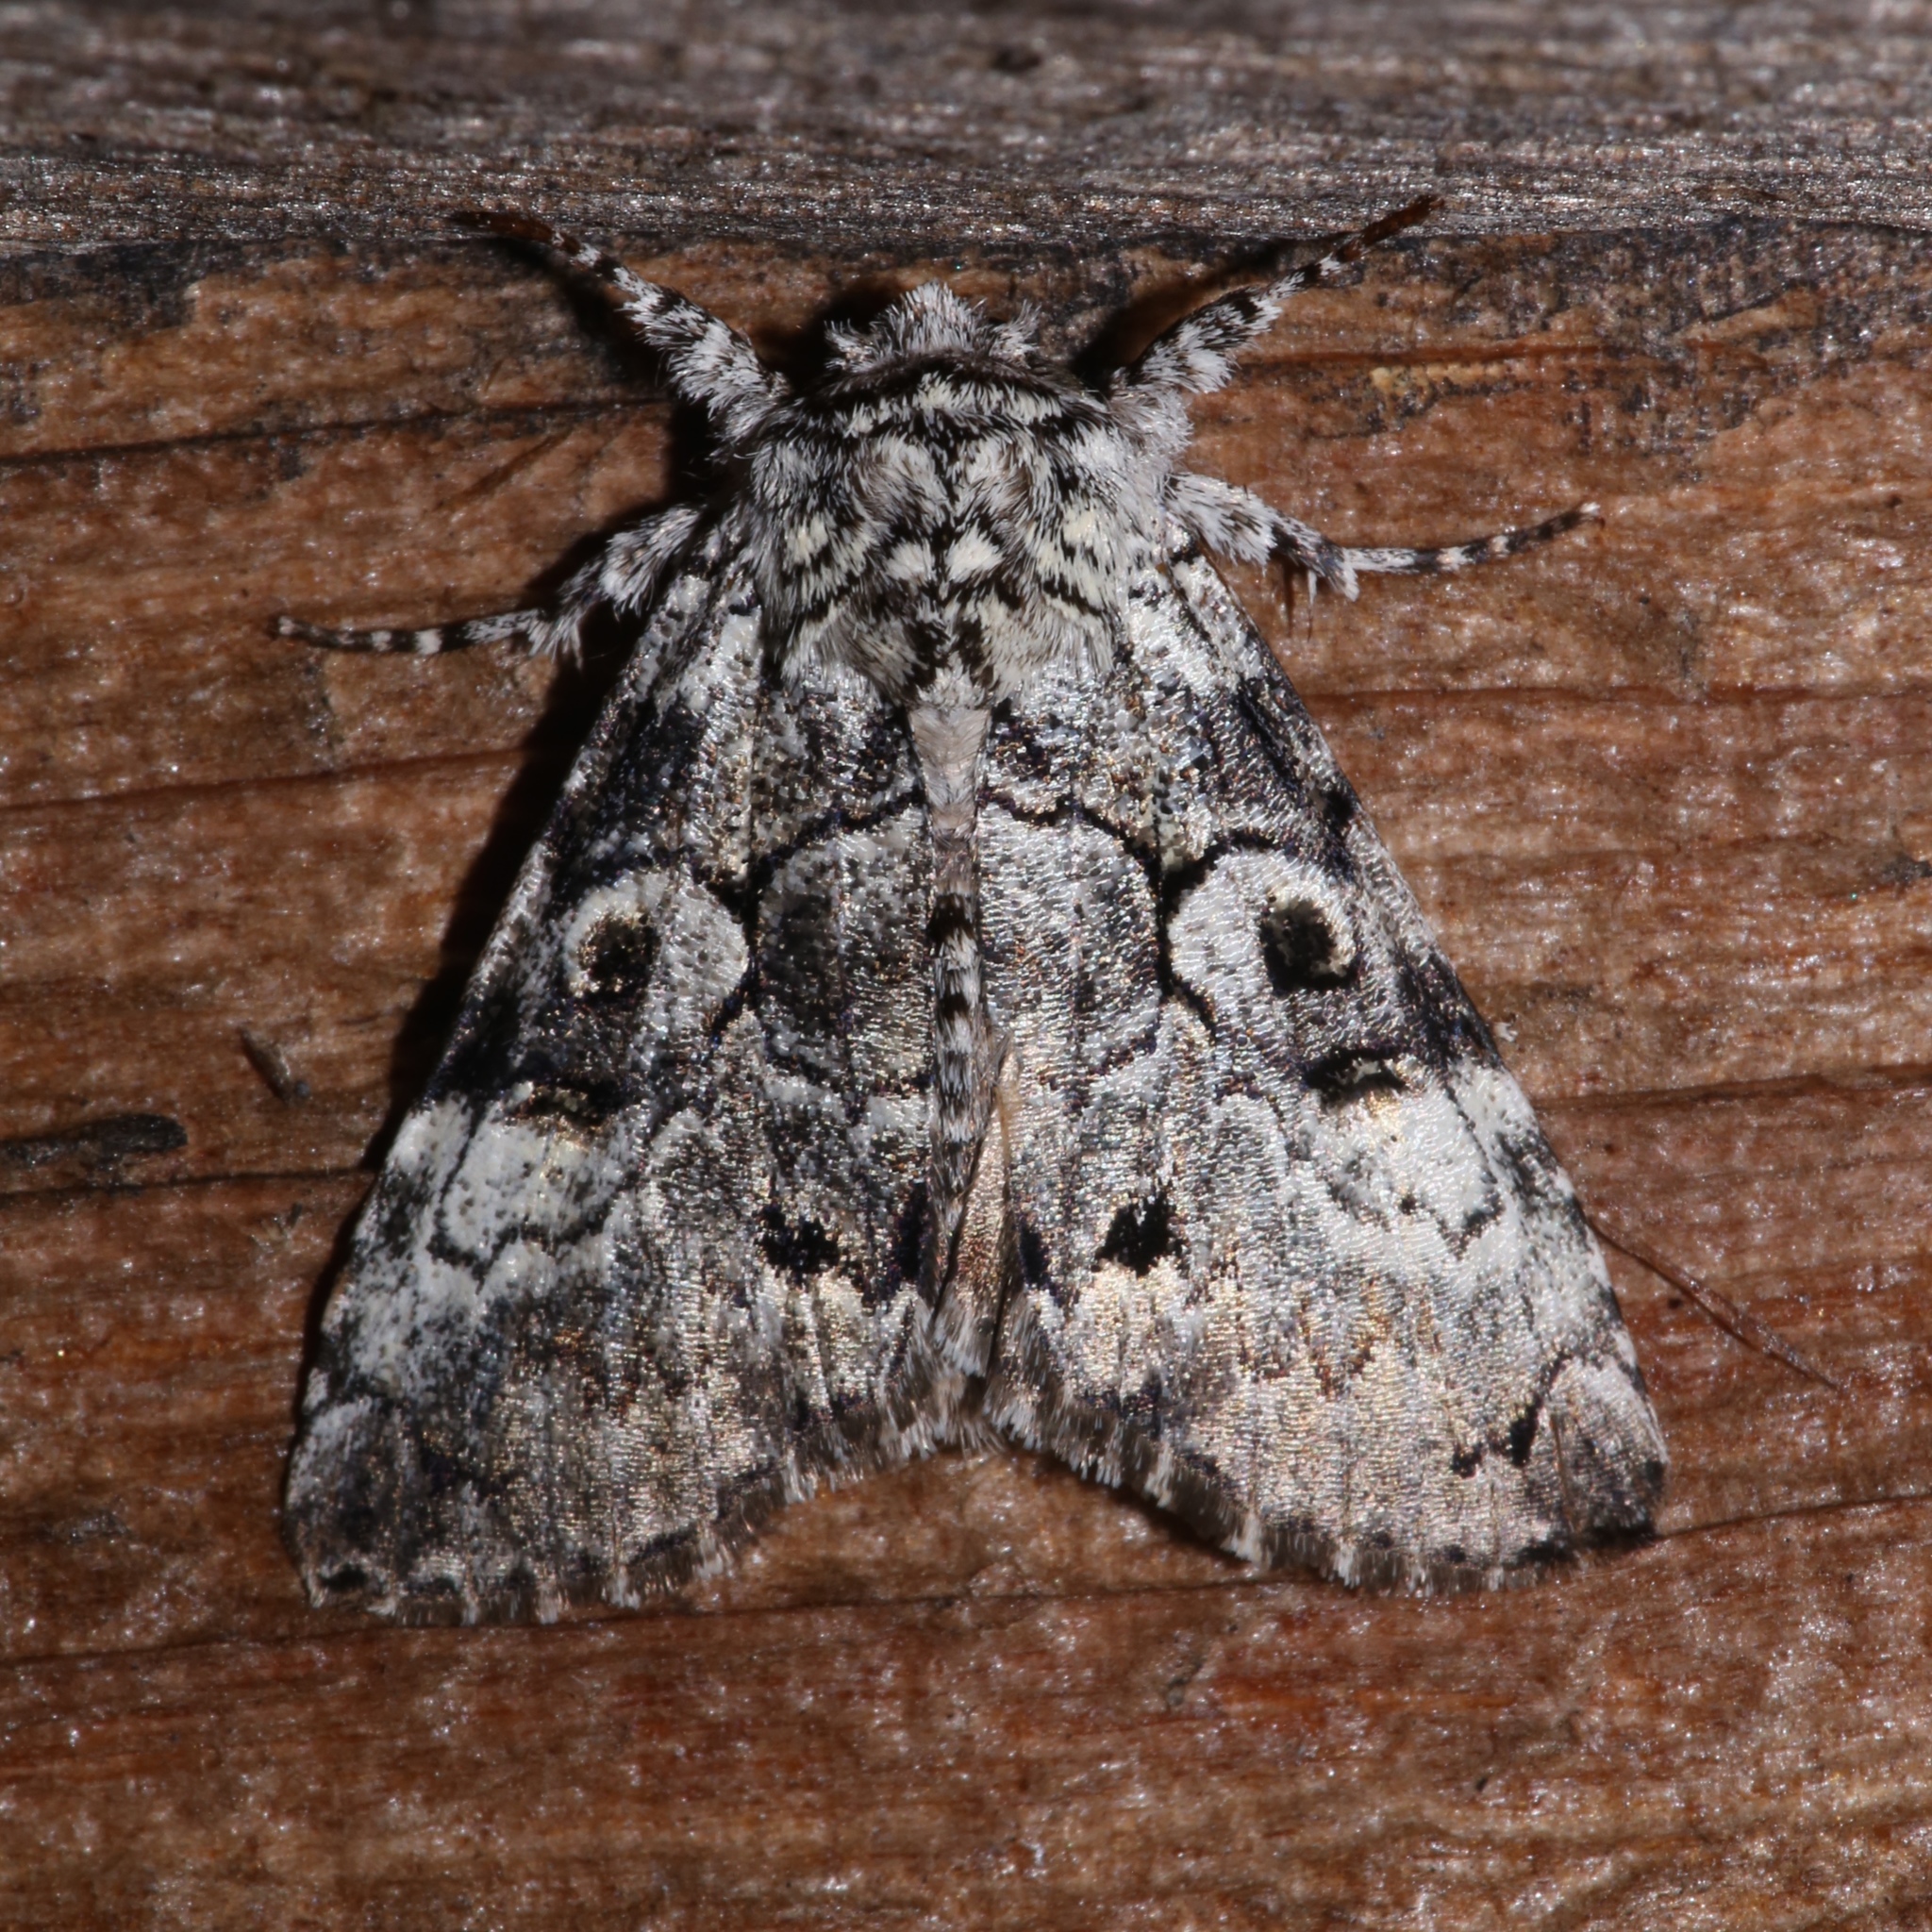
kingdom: Animalia
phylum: Arthropoda
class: Insecta
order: Lepidoptera
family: Noctuidae
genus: Charadra
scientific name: Charadra deridens
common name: Marbled tuffet
